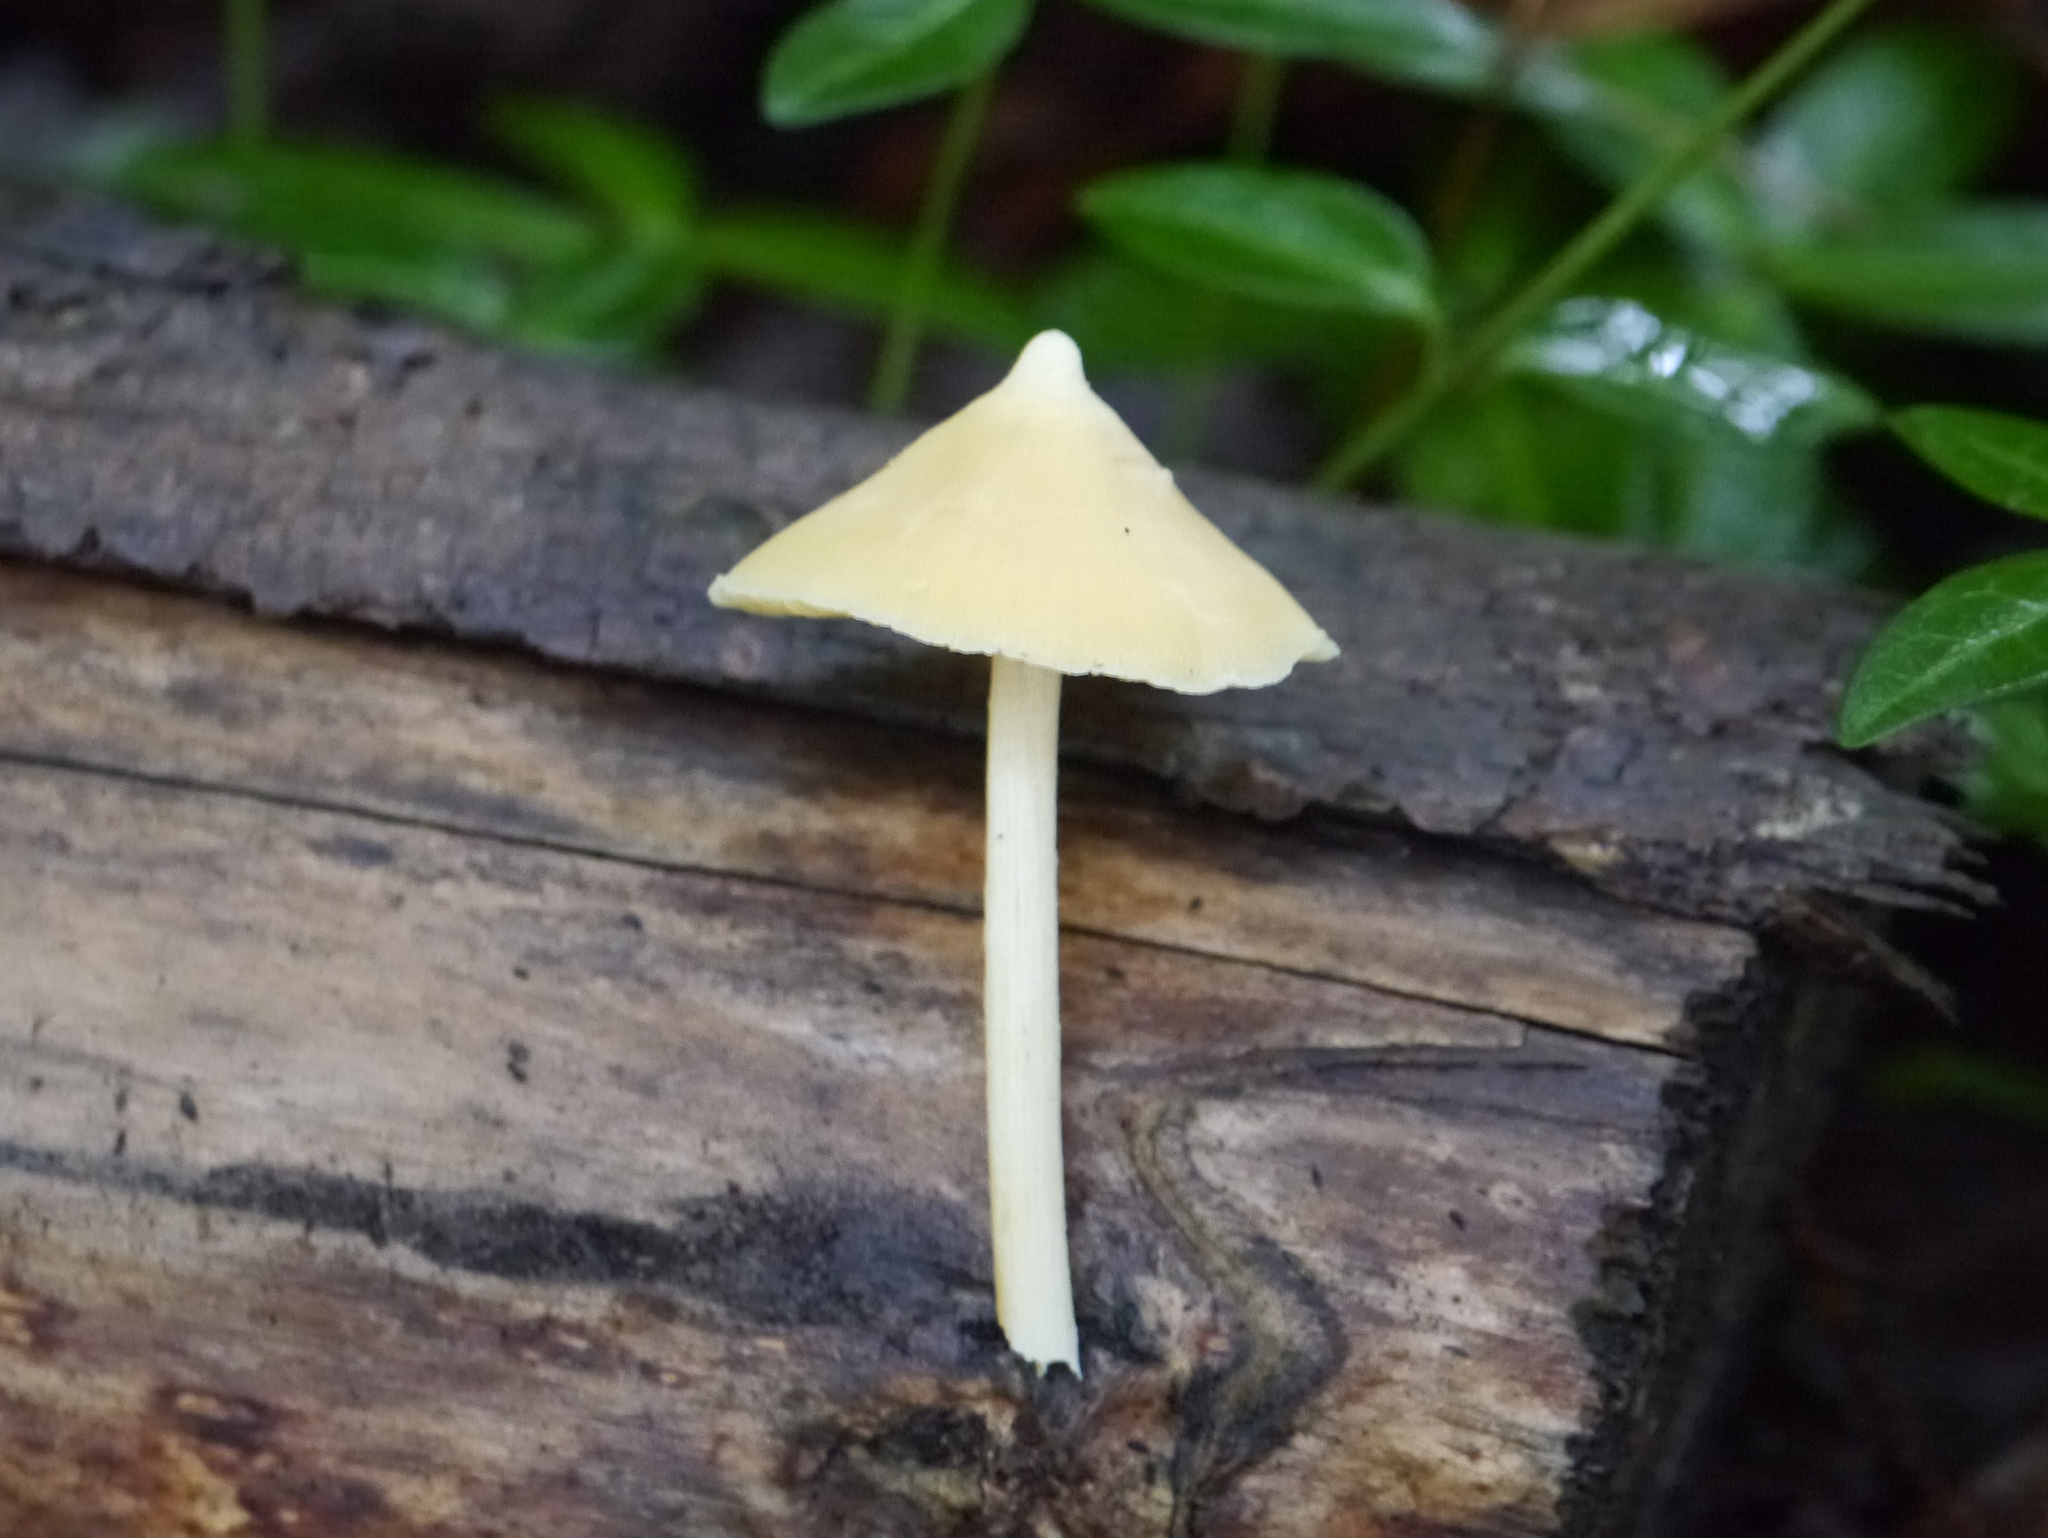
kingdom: Fungi
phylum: Basidiomycota
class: Agaricomycetes
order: Agaricales
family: Entolomataceae
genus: Entoloma
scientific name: Entoloma murrayi
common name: Yellow unicorn entoloma
